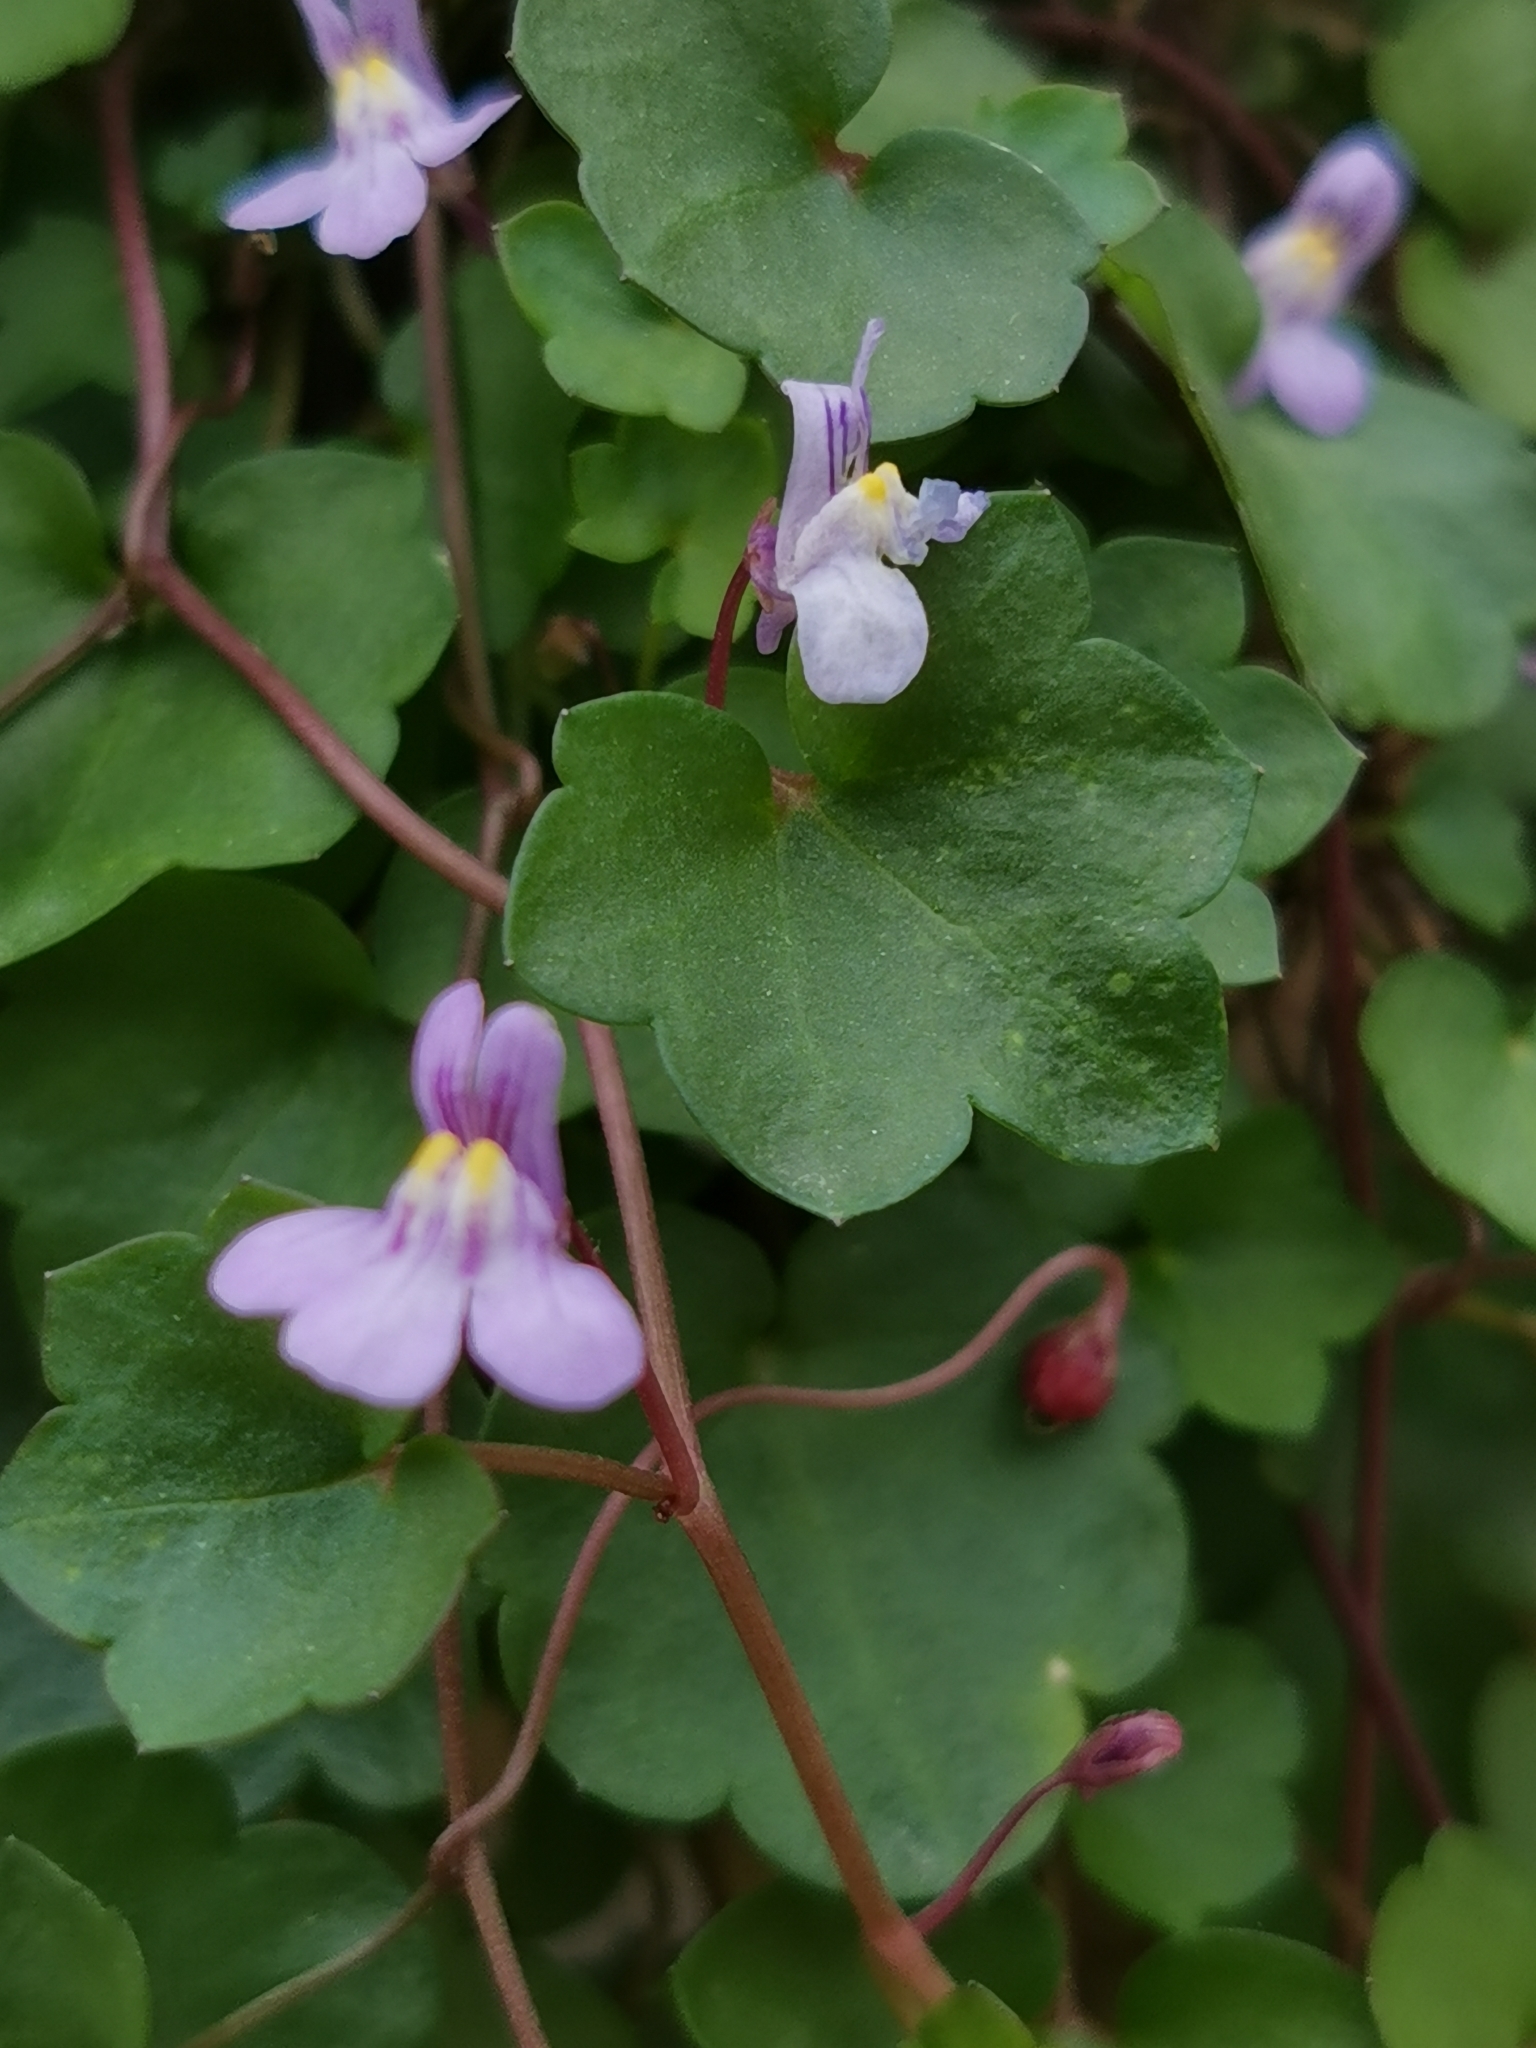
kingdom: Plantae
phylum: Tracheophyta
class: Magnoliopsida
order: Lamiales
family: Plantaginaceae
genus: Cymbalaria
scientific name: Cymbalaria muralis
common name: Ivy-leaved toadflax
